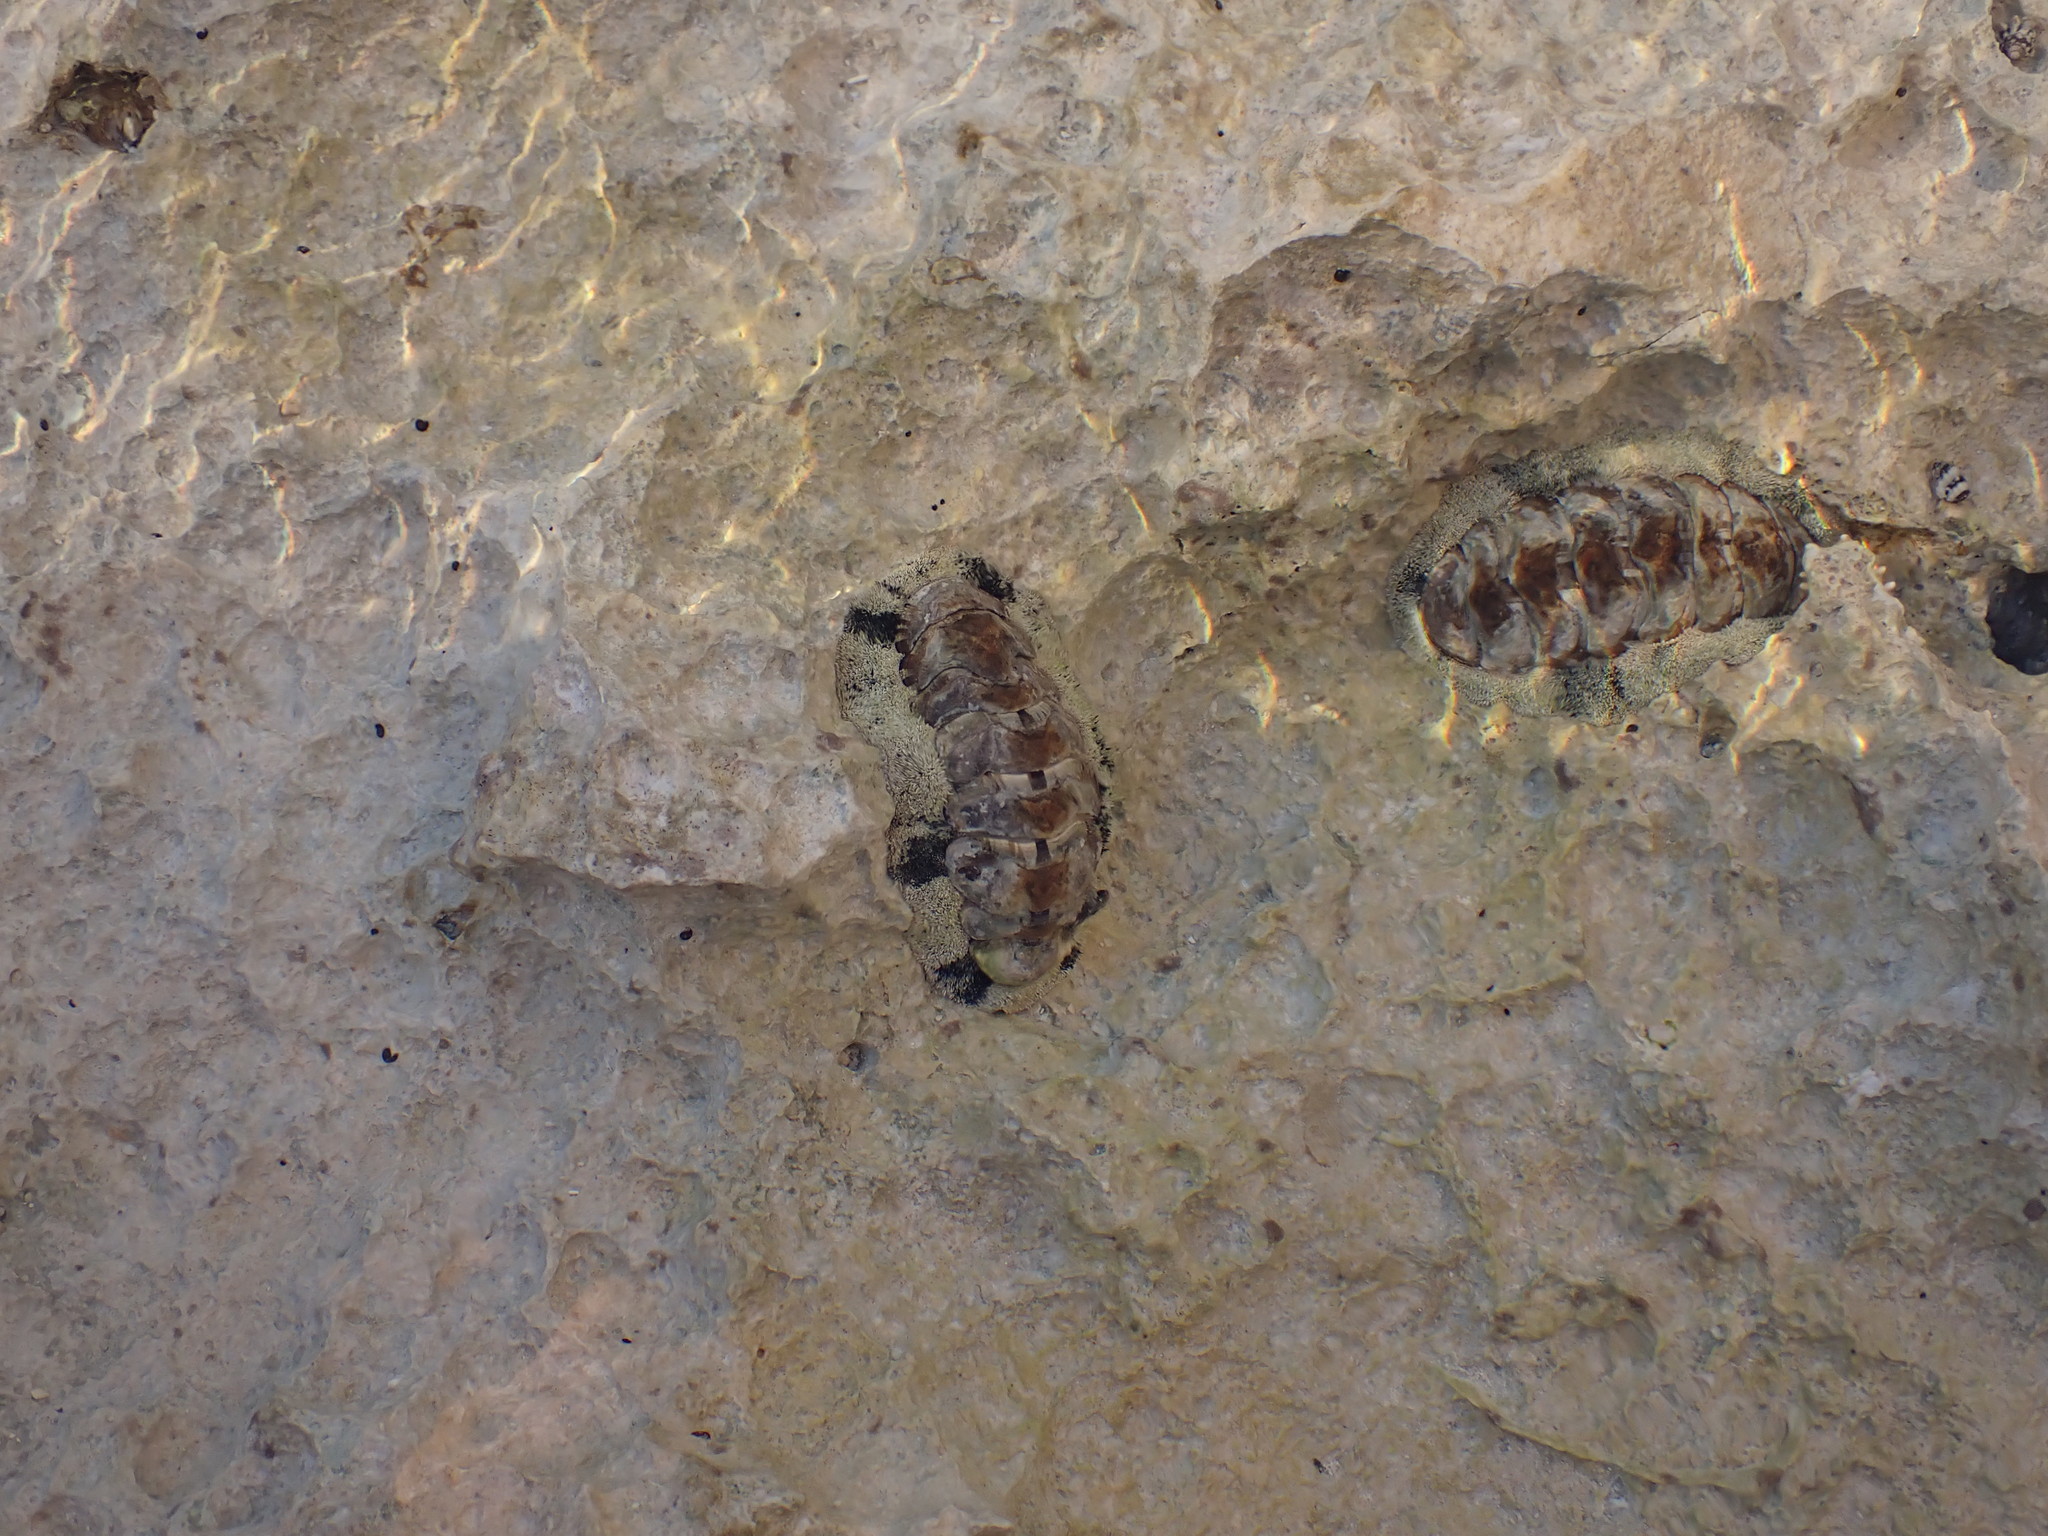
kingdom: Animalia
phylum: Mollusca
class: Polyplacophora
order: Chitonida
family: Chitonidae
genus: Acanthopleura
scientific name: Acanthopleura granulata
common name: West indian fuzzy chiton
